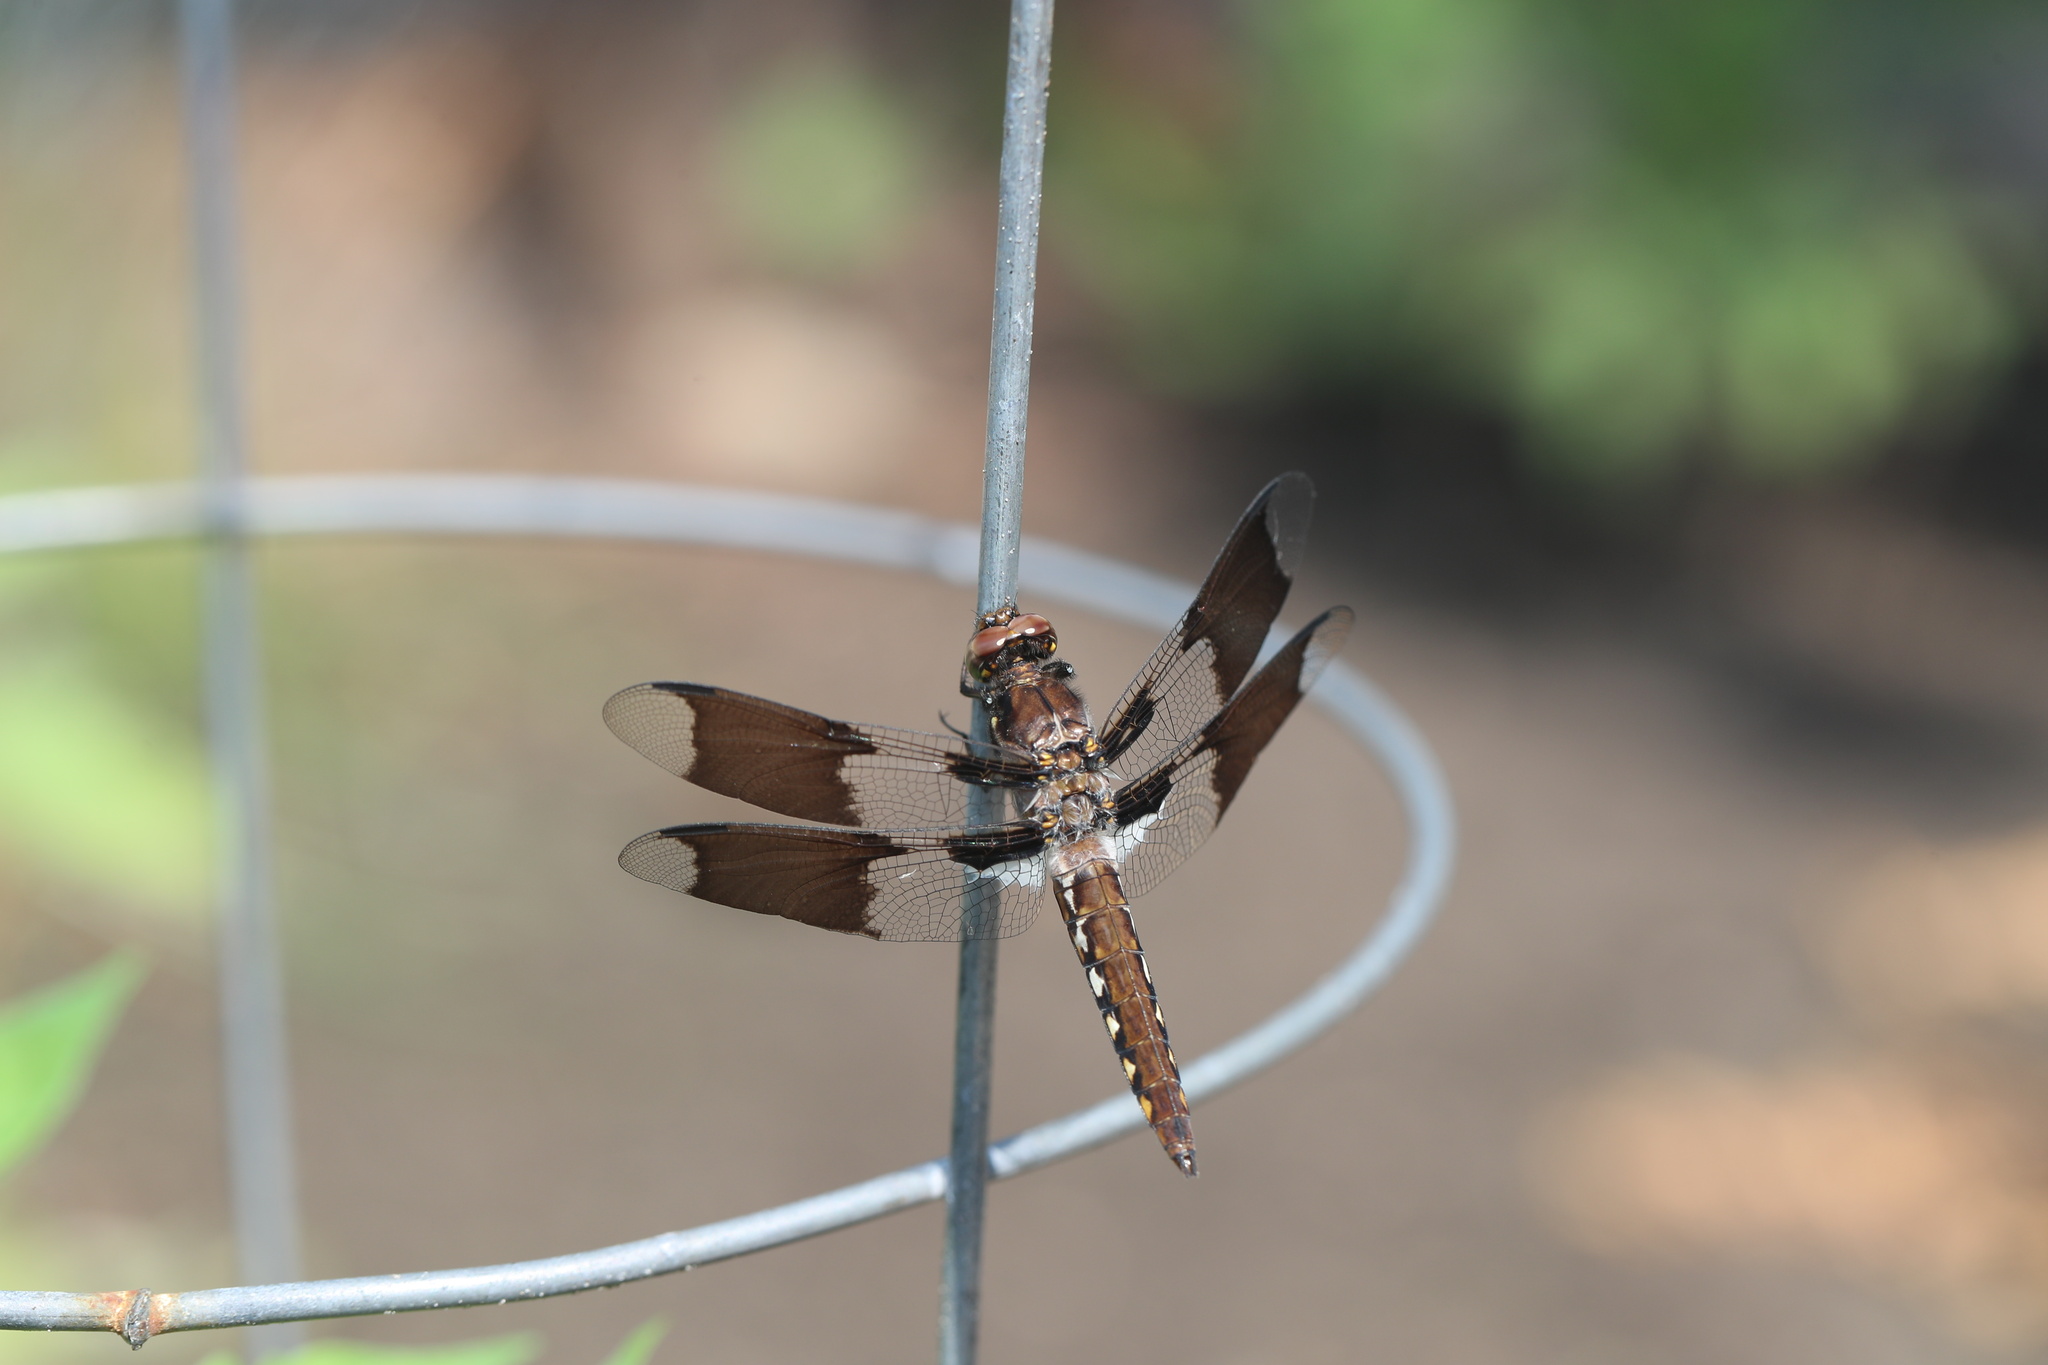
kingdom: Animalia
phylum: Arthropoda
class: Insecta
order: Odonata
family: Libellulidae
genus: Plathemis
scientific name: Plathemis lydia
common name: Common whitetail
